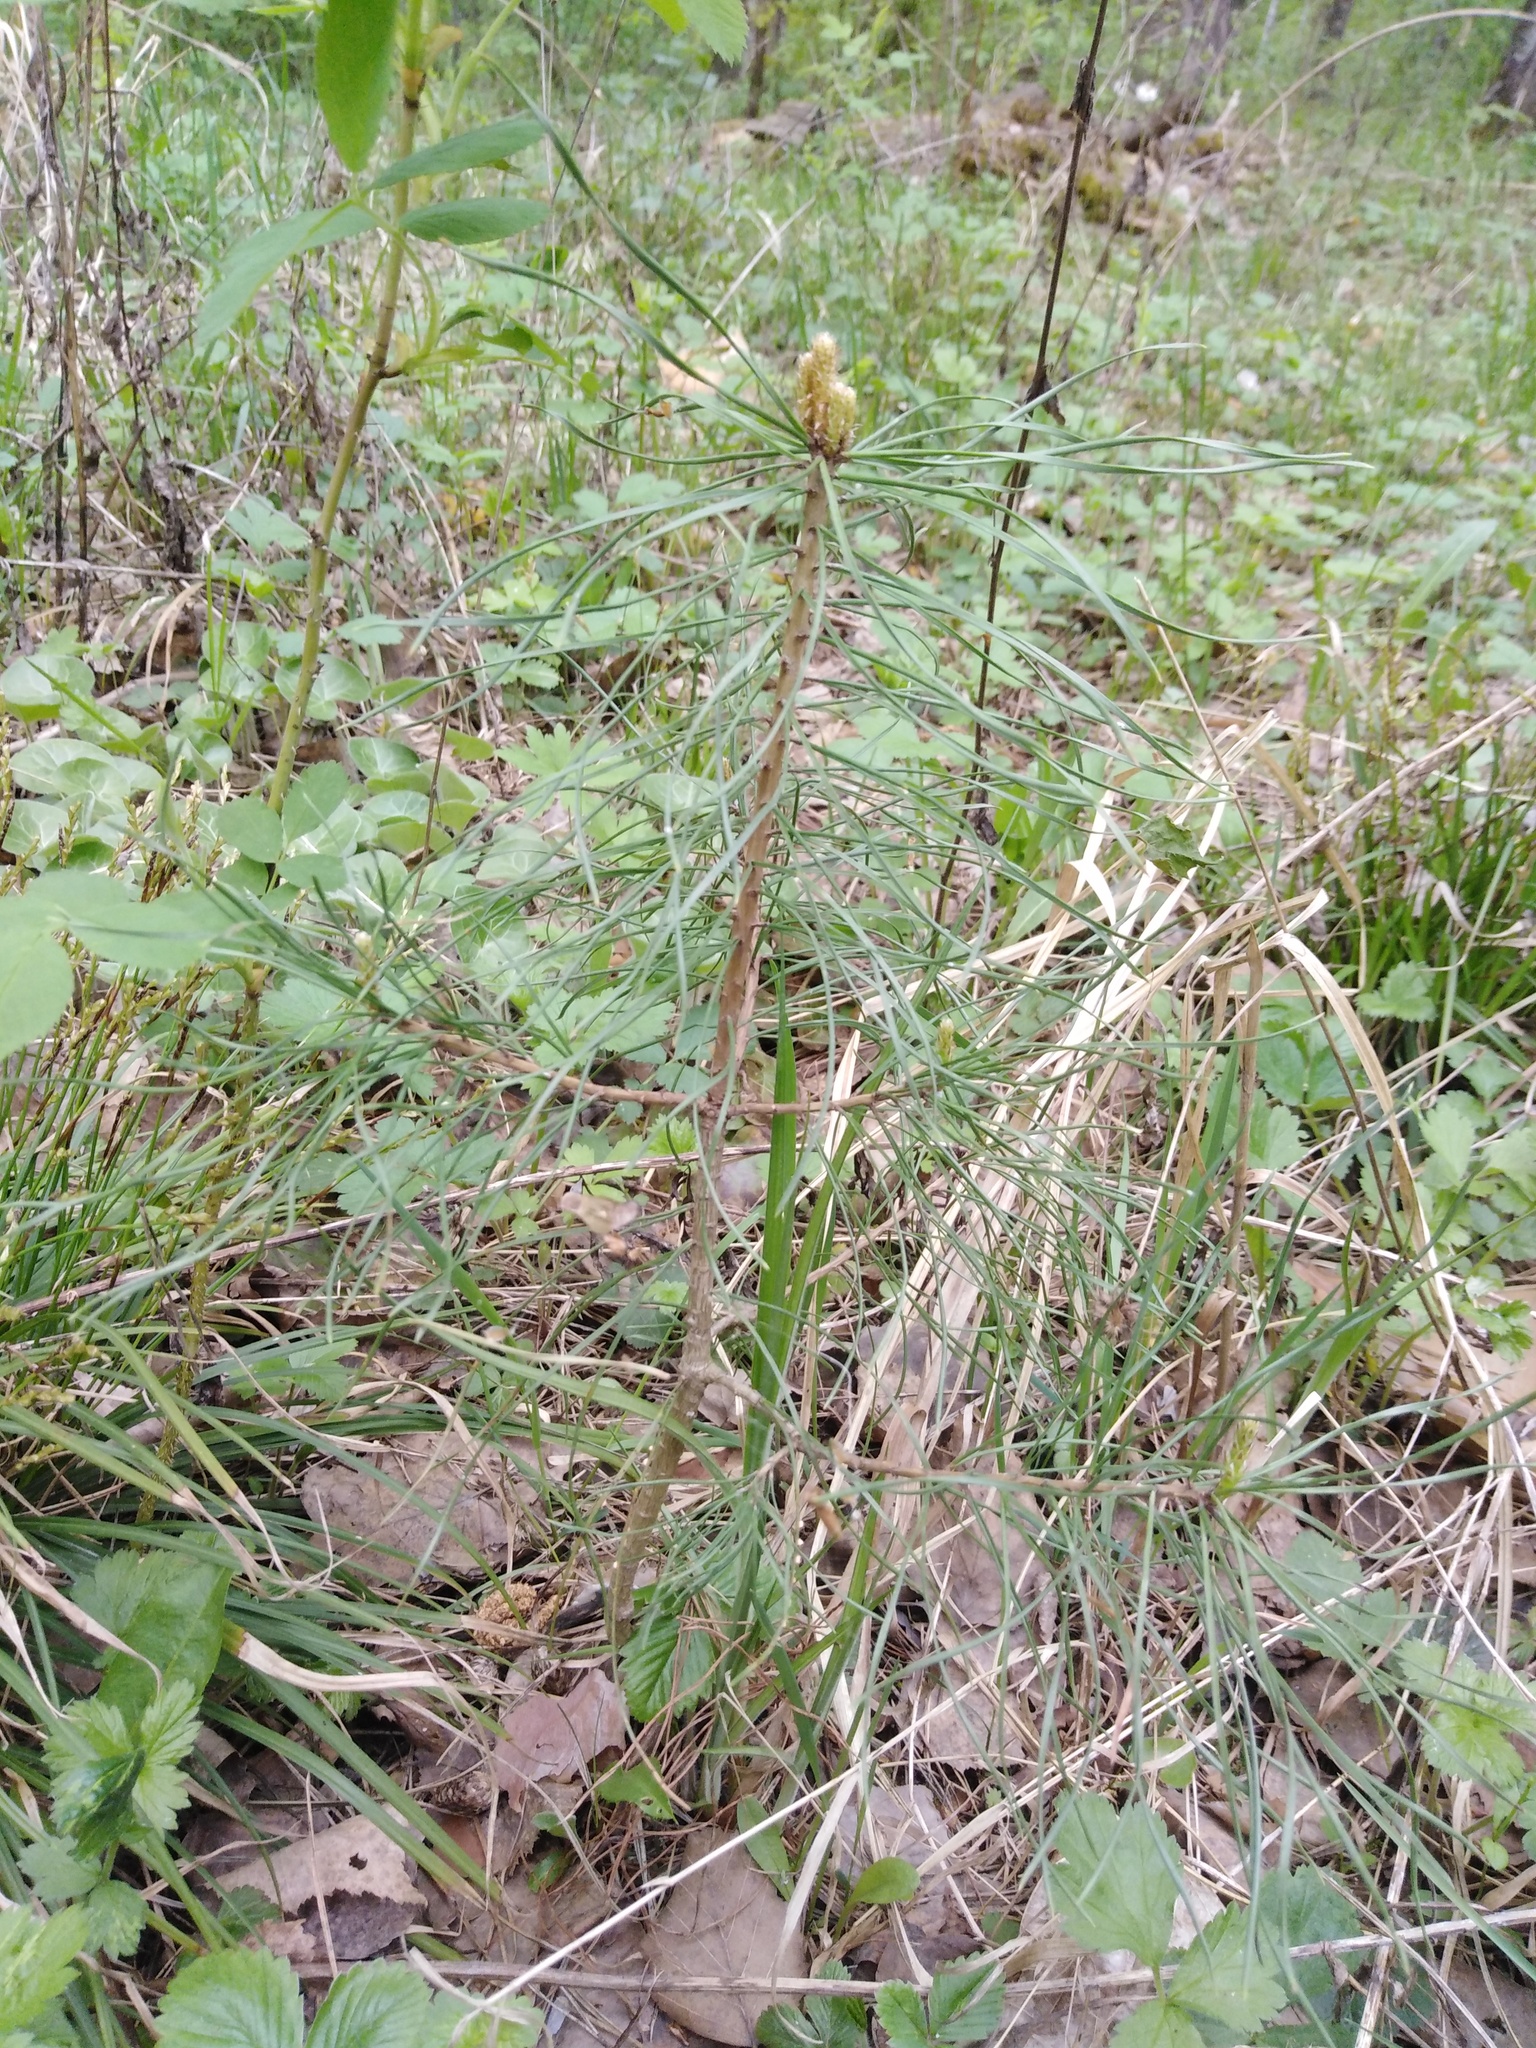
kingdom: Plantae
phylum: Tracheophyta
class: Pinopsida
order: Pinales
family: Pinaceae
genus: Pinus
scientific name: Pinus sylvestris
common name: Scots pine
